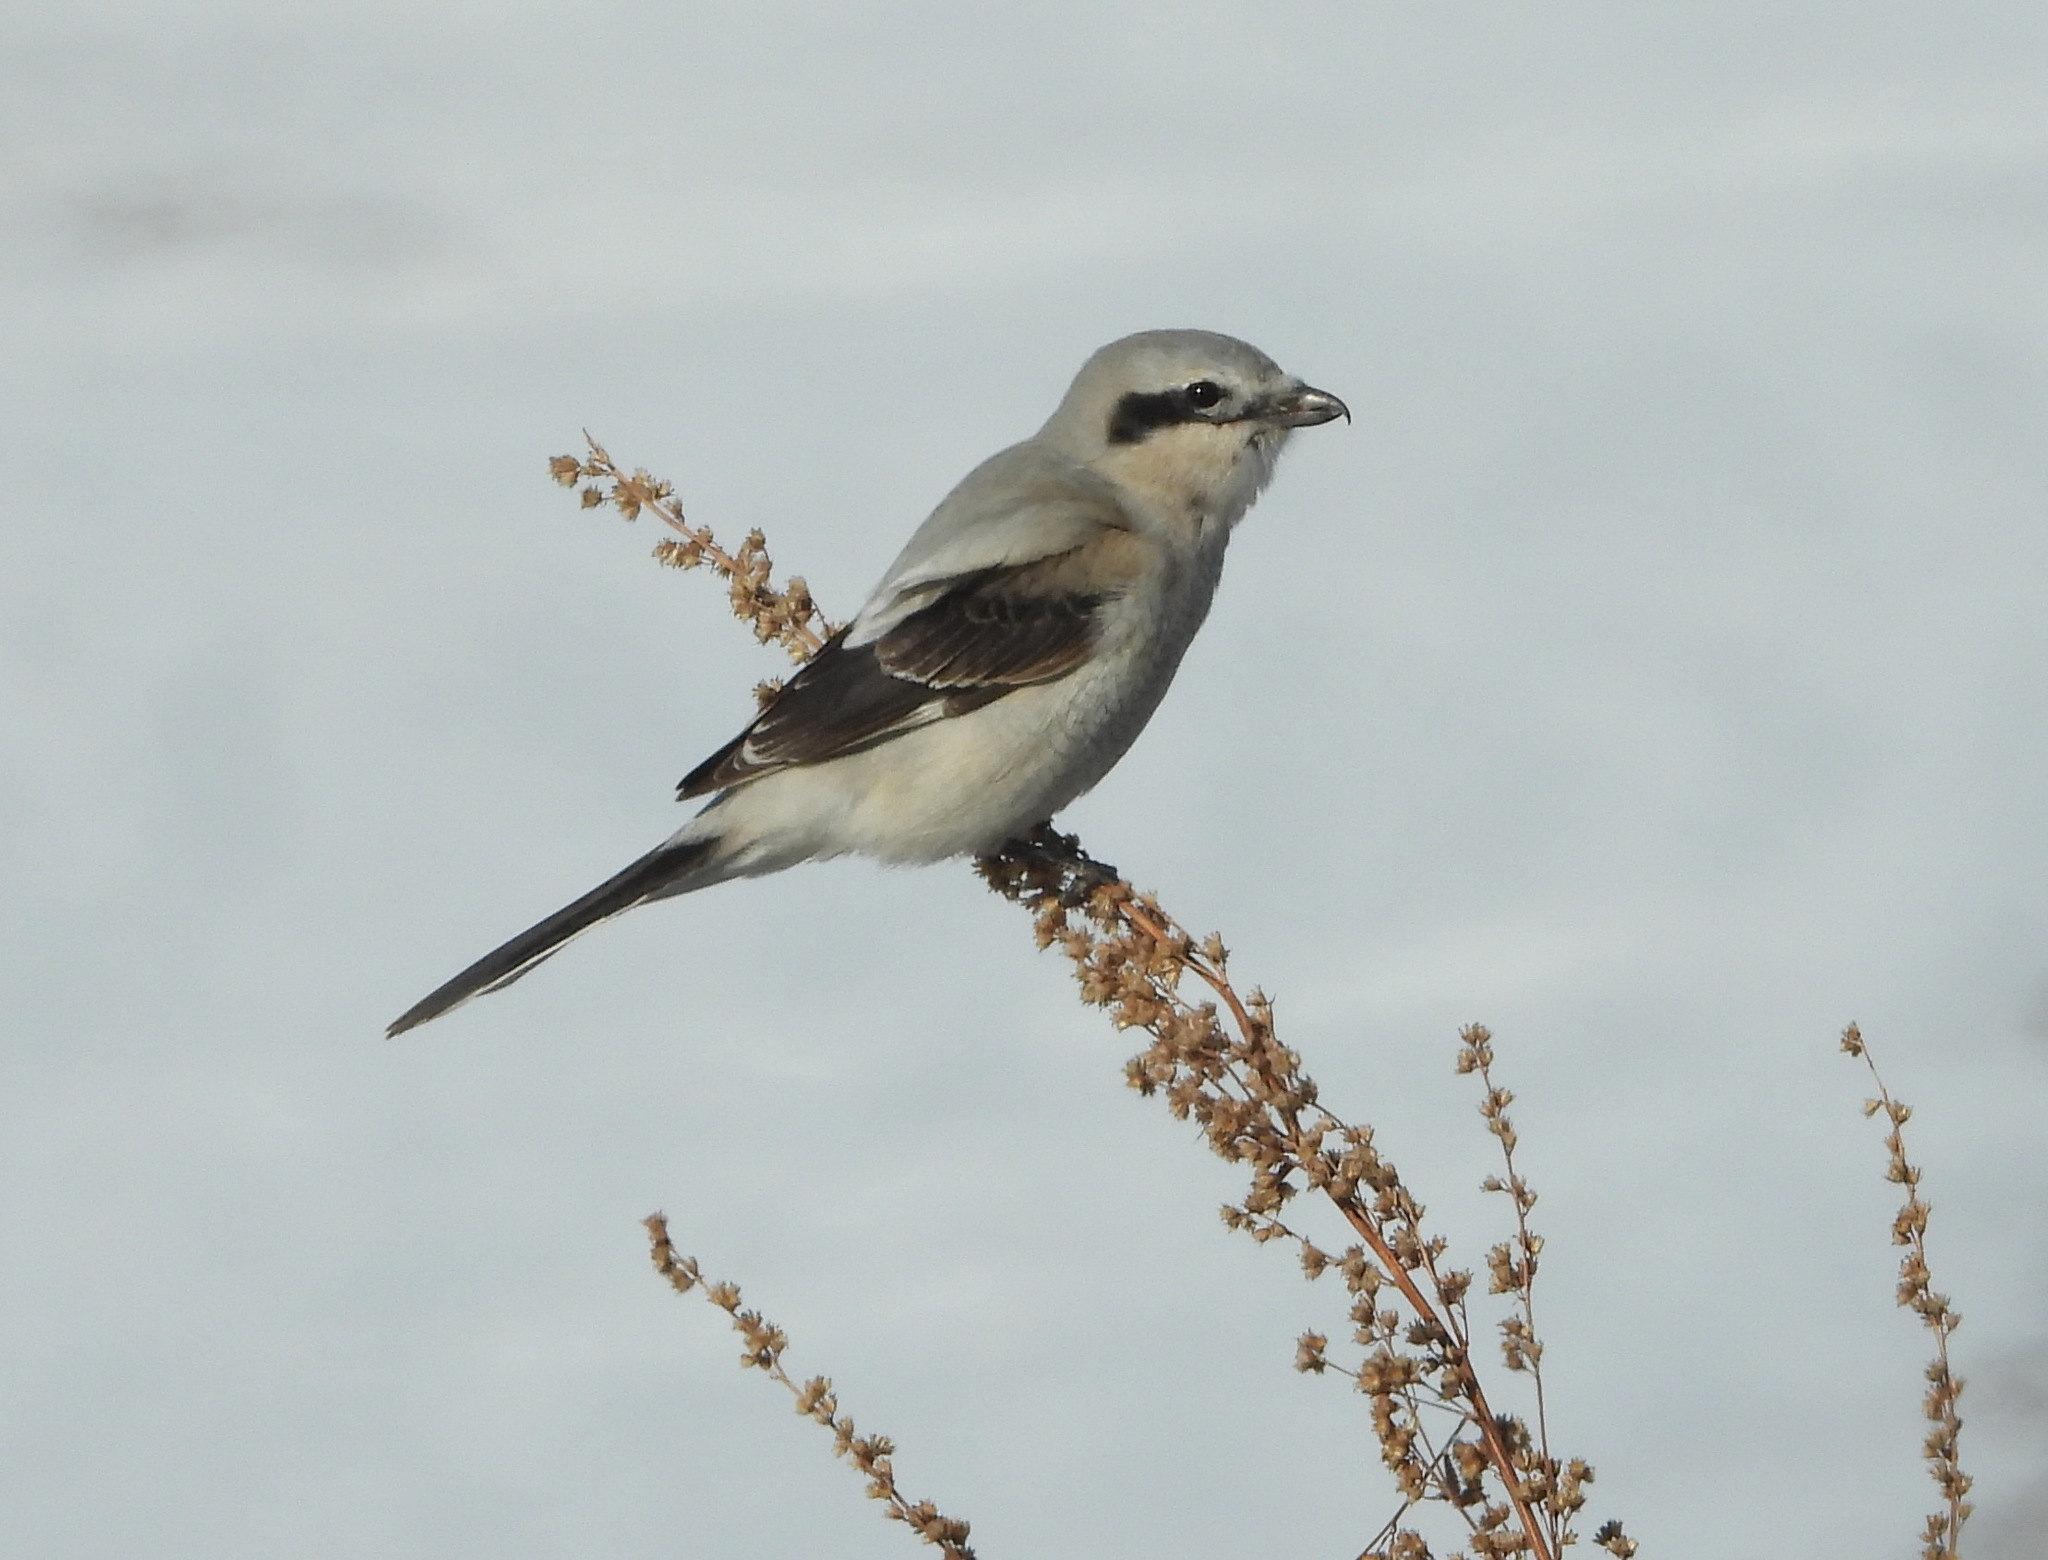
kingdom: Animalia
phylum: Chordata
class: Aves
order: Passeriformes
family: Laniidae
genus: Lanius
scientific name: Lanius excubitor
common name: Great grey shrike
